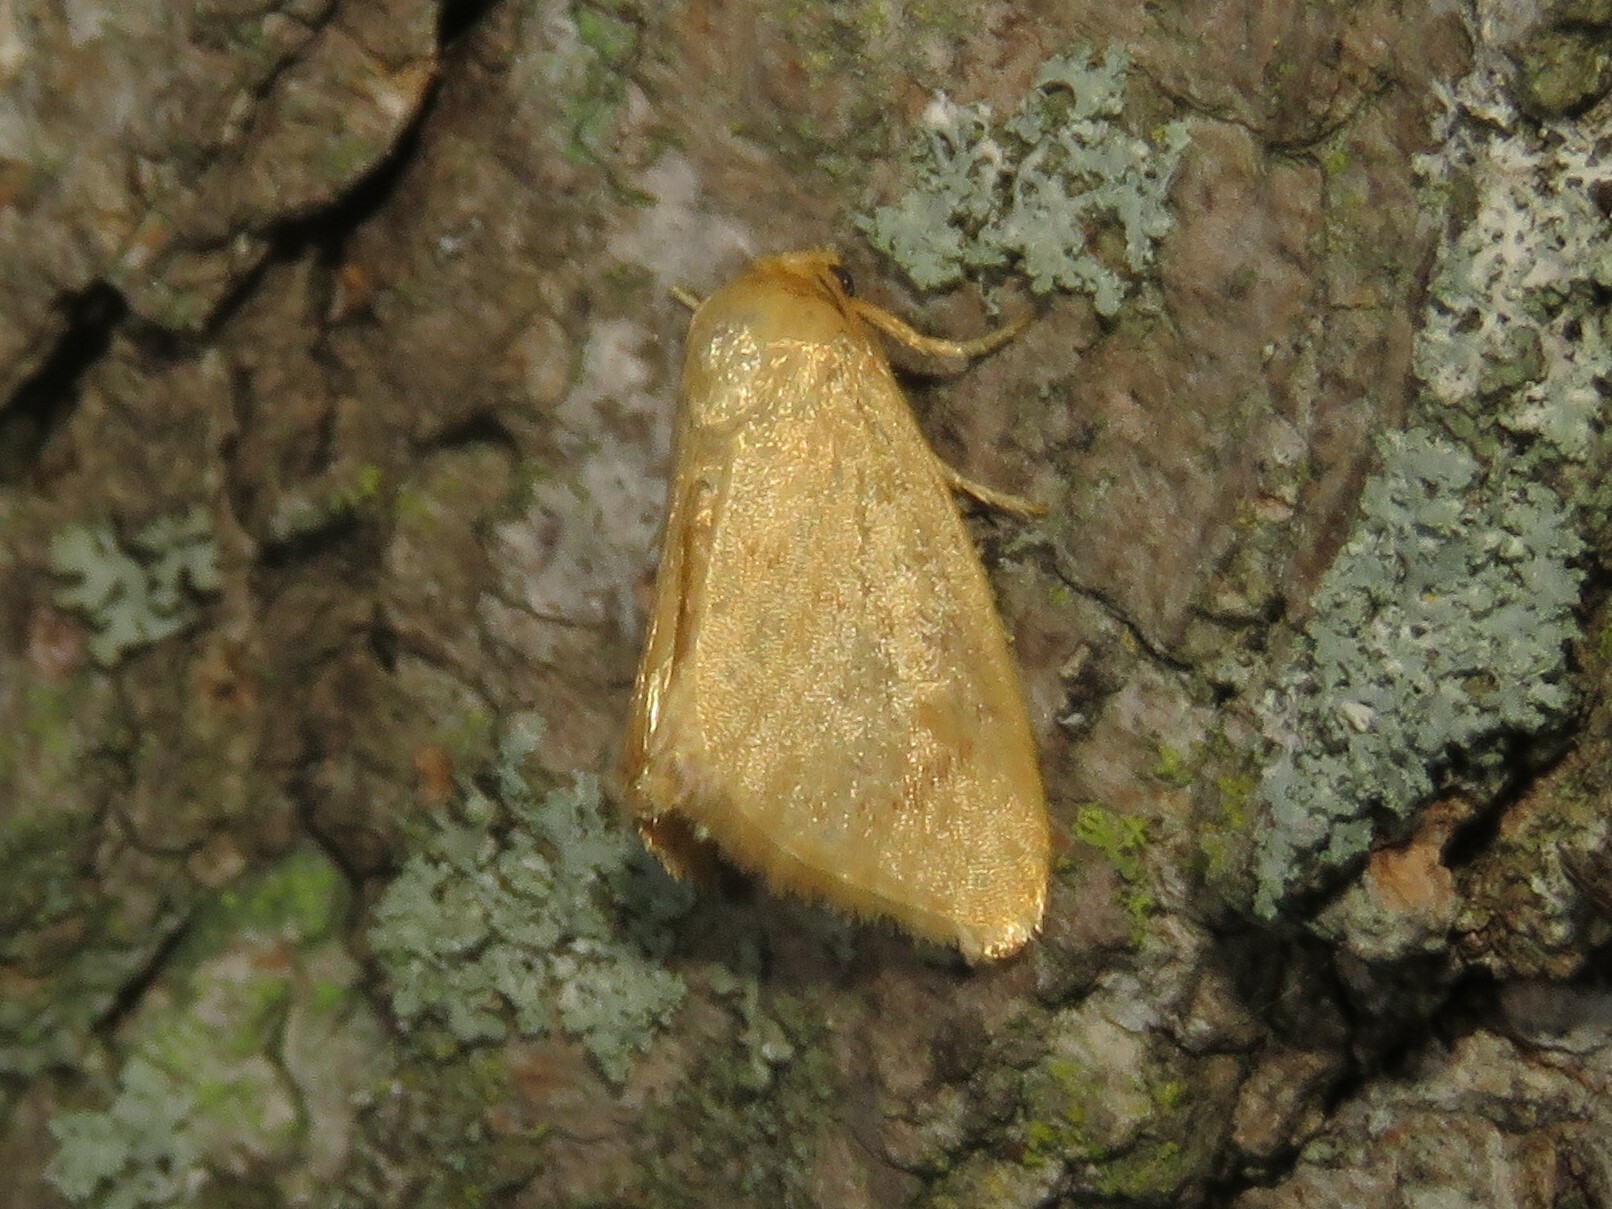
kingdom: Animalia
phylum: Arthropoda
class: Insecta
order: Lepidoptera
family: Limacodidae
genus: Tortricidia
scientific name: Tortricidia pallida
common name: Red-crossed button slug moth
